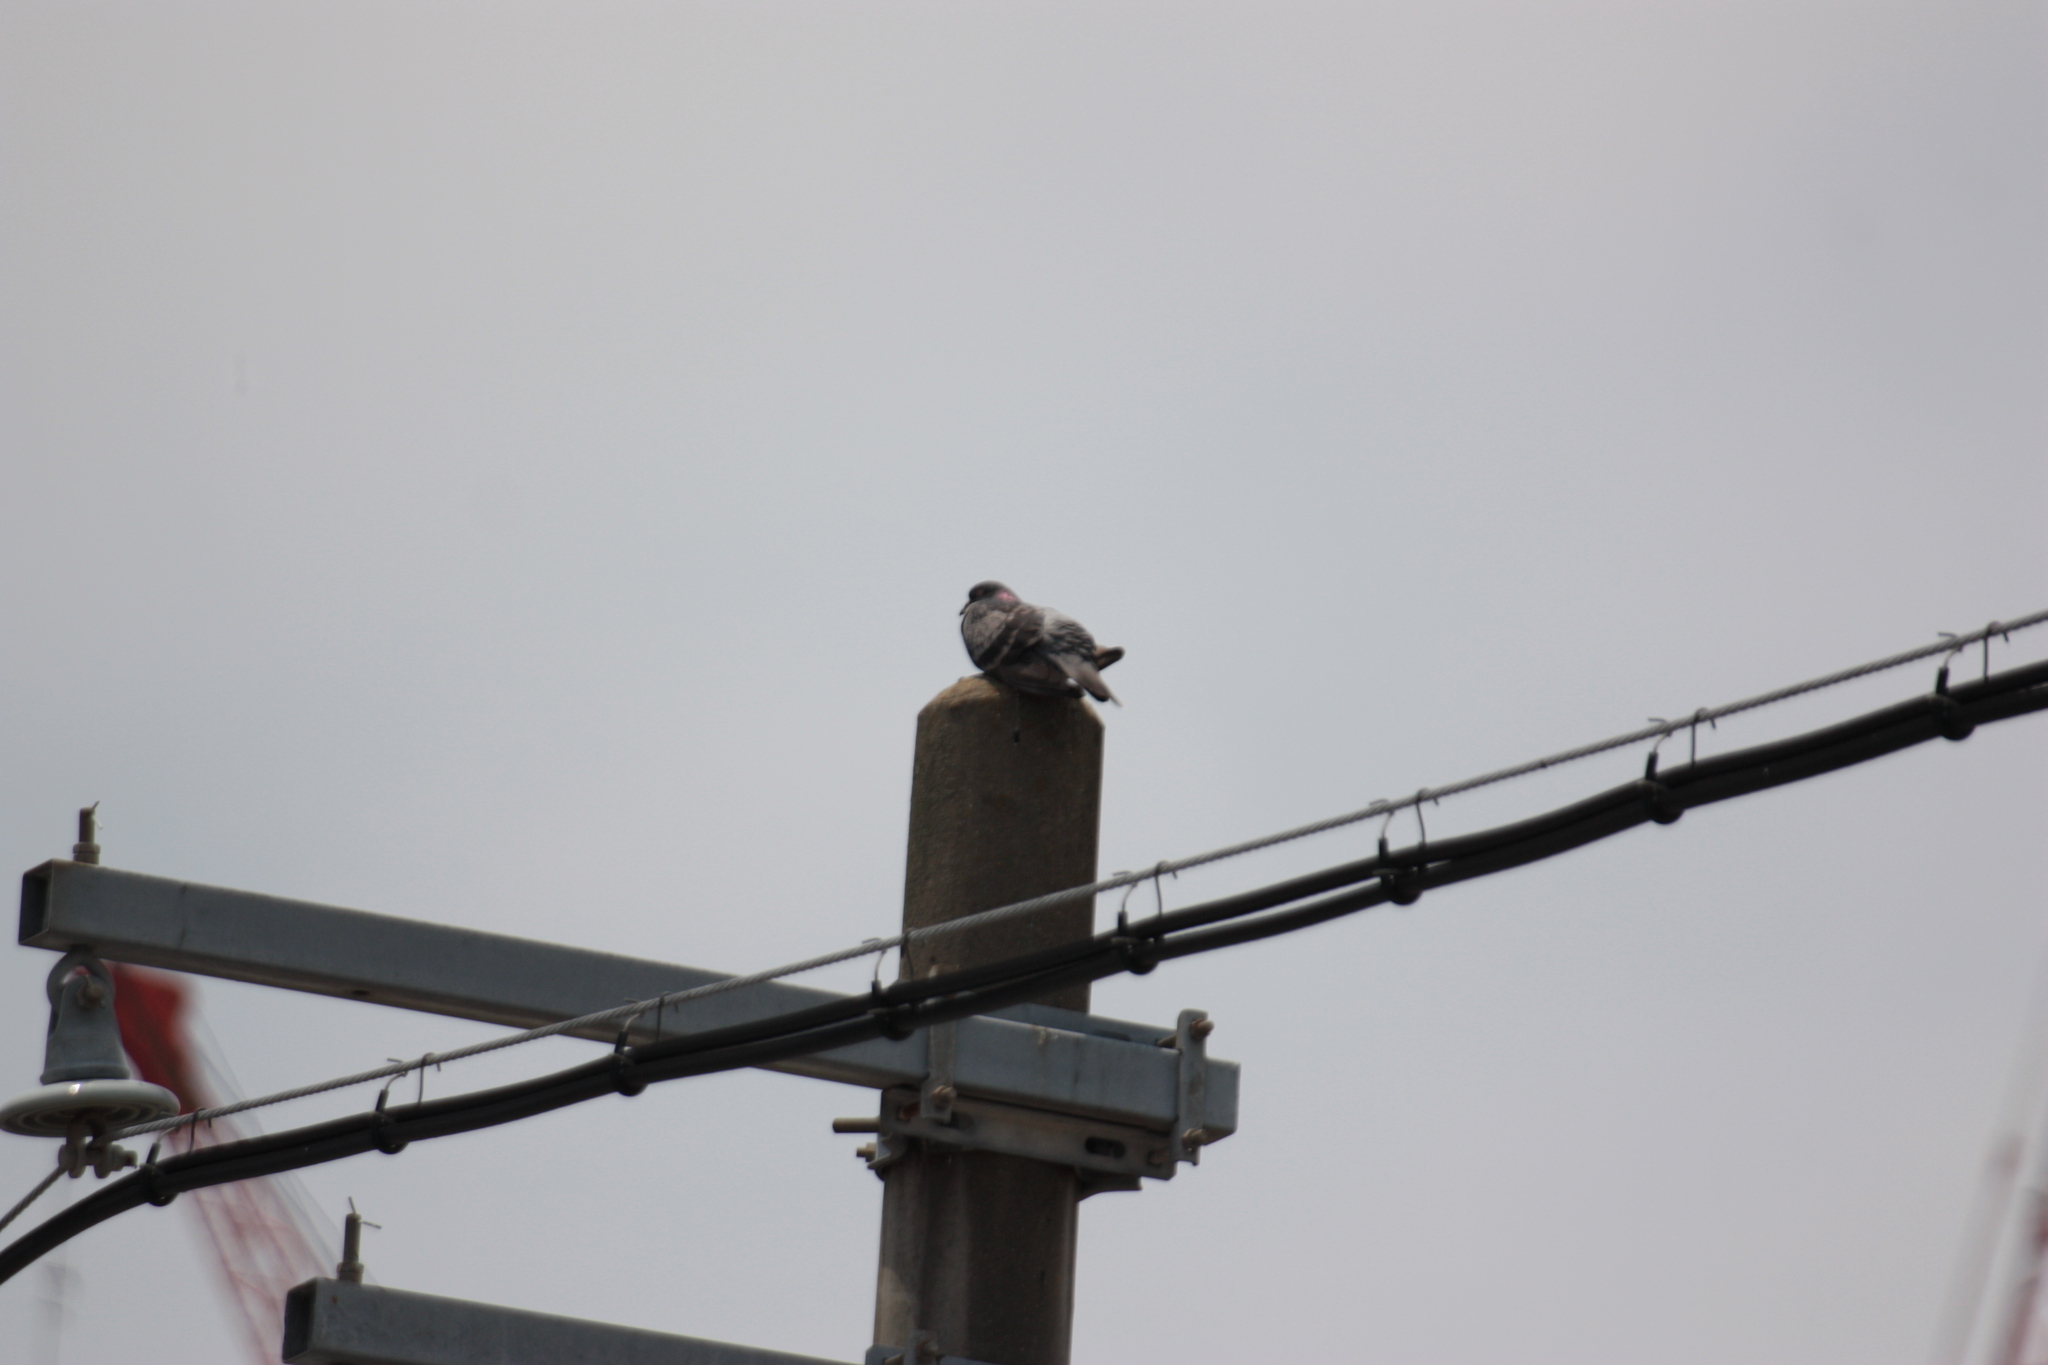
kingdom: Animalia
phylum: Chordata
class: Aves
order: Columbiformes
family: Columbidae
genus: Columba
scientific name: Columba livia
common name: Rock pigeon
